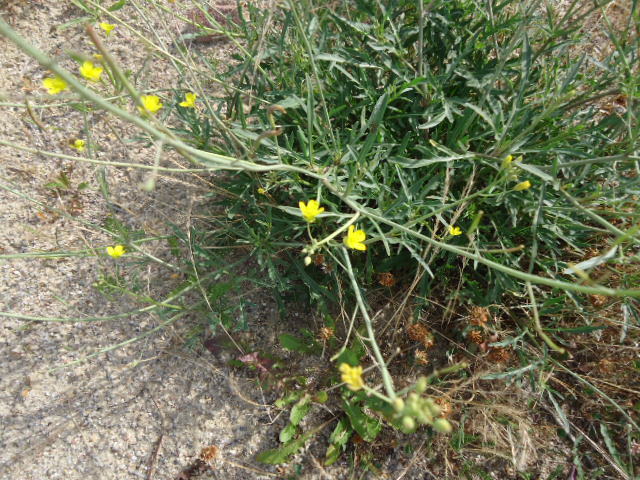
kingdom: Plantae
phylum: Tracheophyta
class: Magnoliopsida
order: Brassicales
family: Brassicaceae
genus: Diplotaxis
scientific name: Diplotaxis tenuifolia
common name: Perennial wall-rocket
